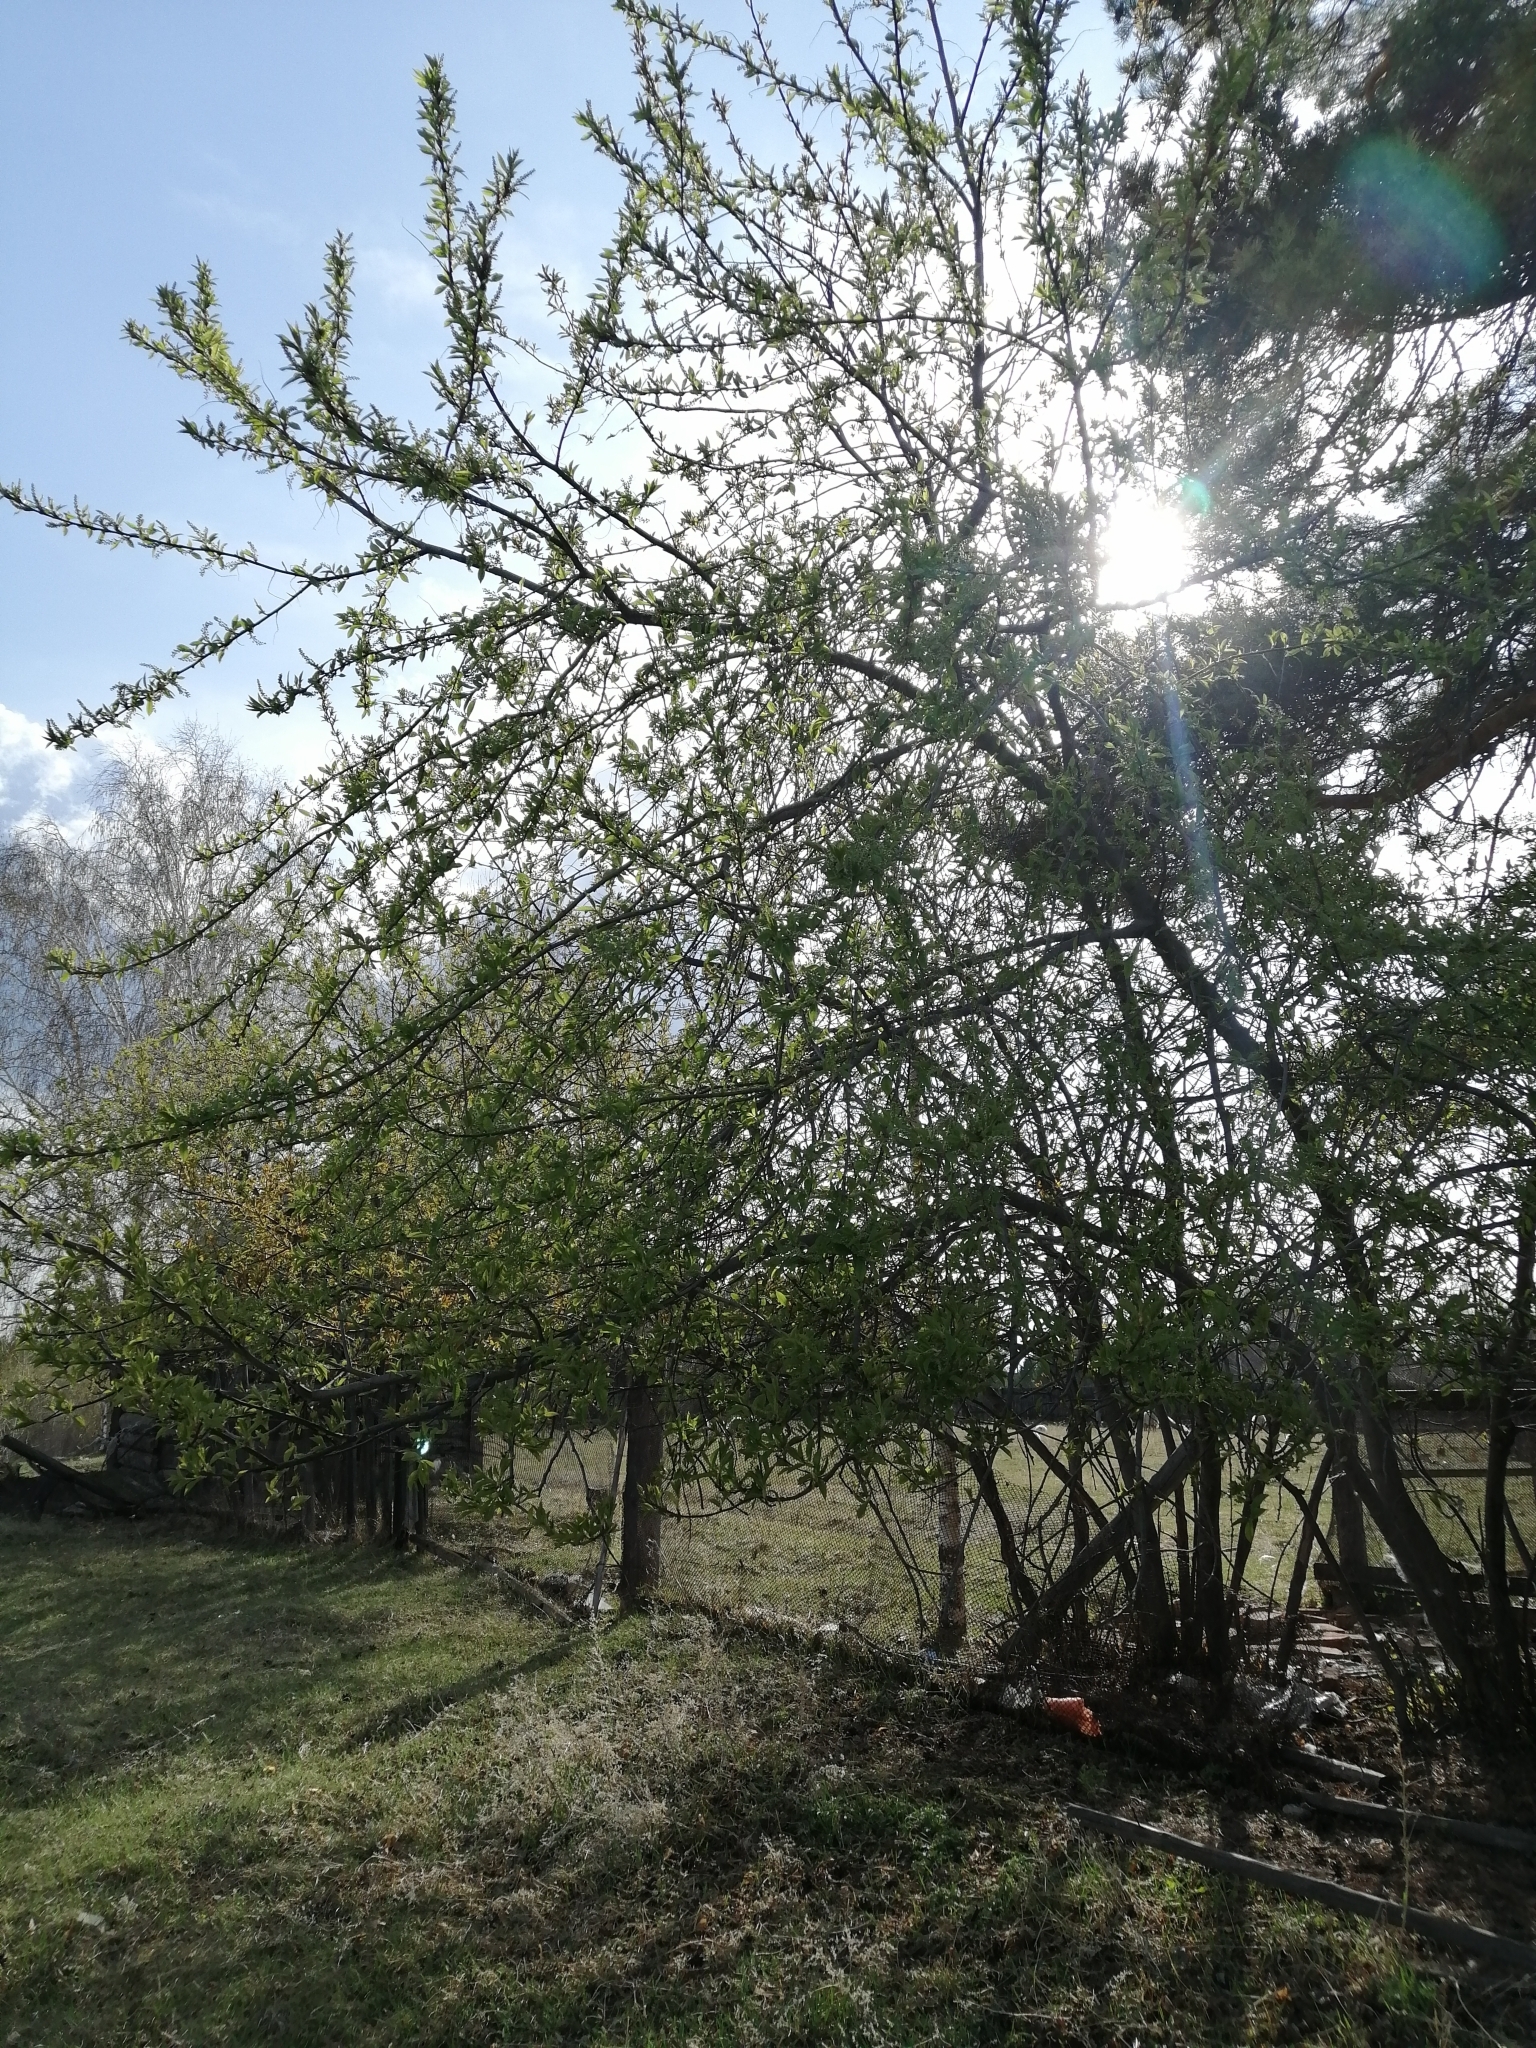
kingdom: Plantae
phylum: Tracheophyta
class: Magnoliopsida
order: Rosales
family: Rosaceae
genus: Prunus
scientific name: Prunus padus
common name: Bird cherry
